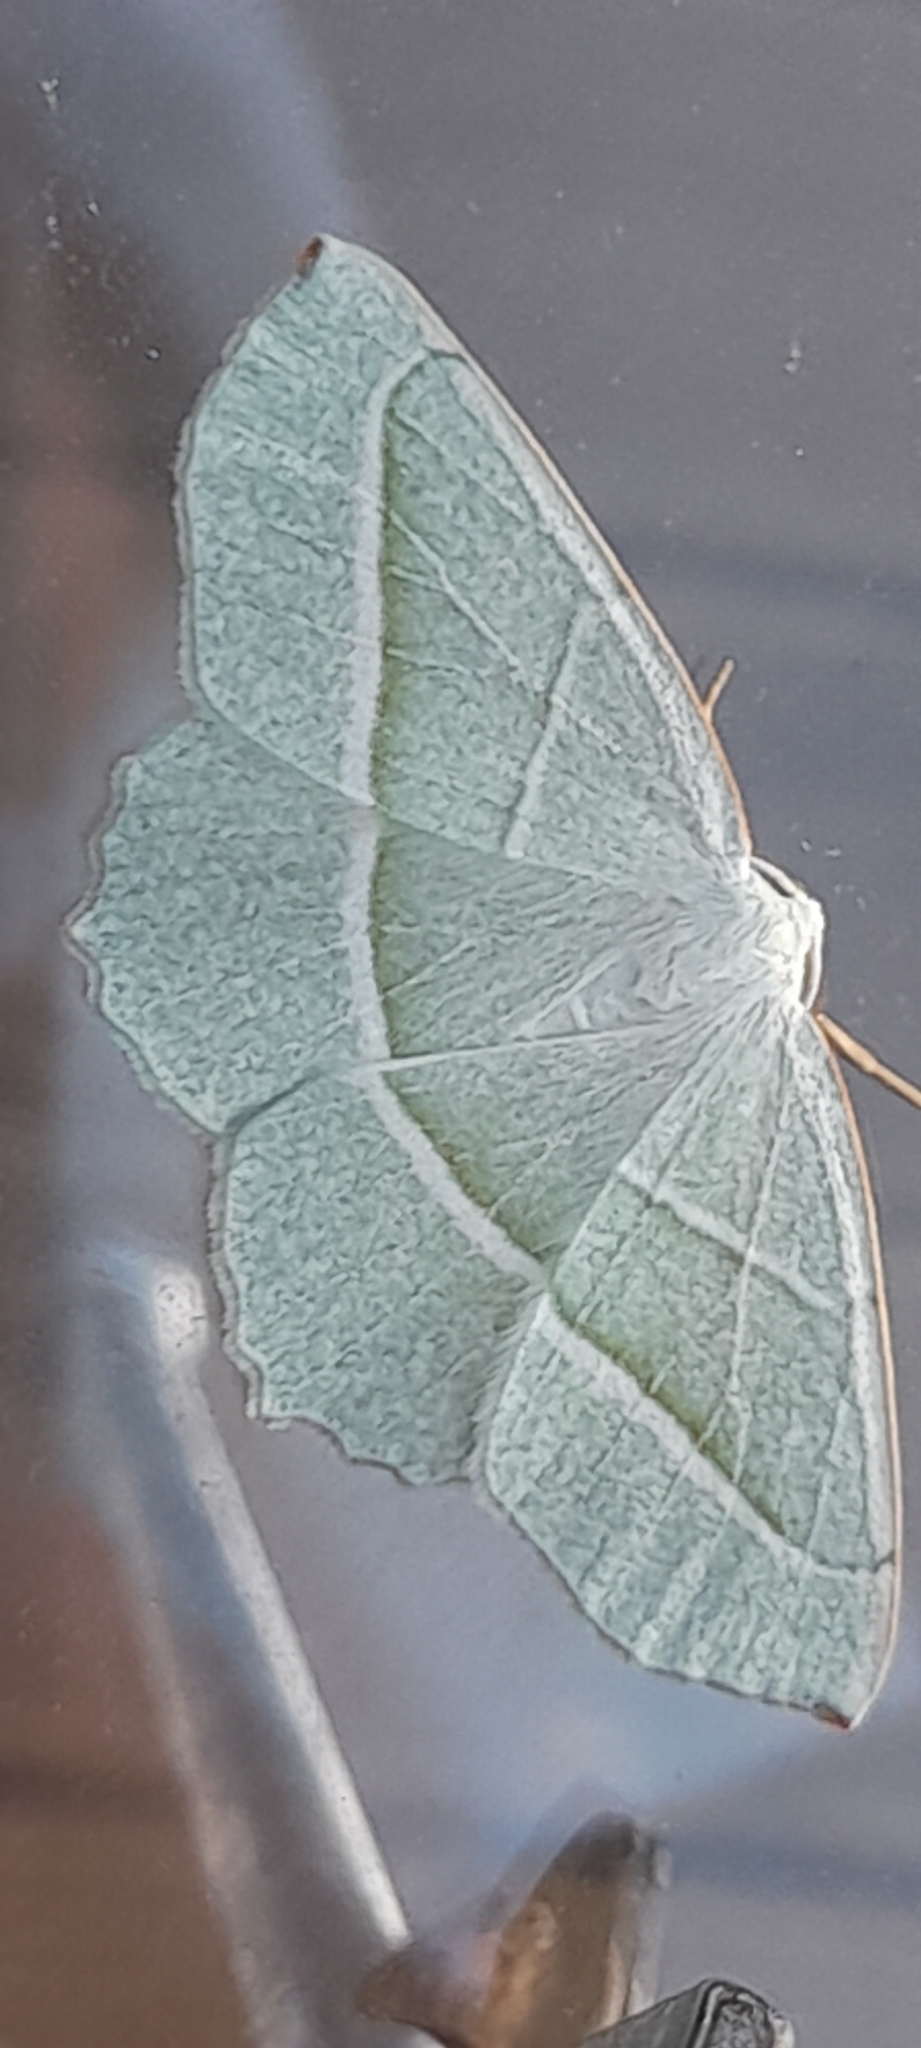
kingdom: Animalia
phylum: Arthropoda
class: Insecta
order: Lepidoptera
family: Geometridae
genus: Campaea
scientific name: Campaea margaritaria
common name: Light emerald
